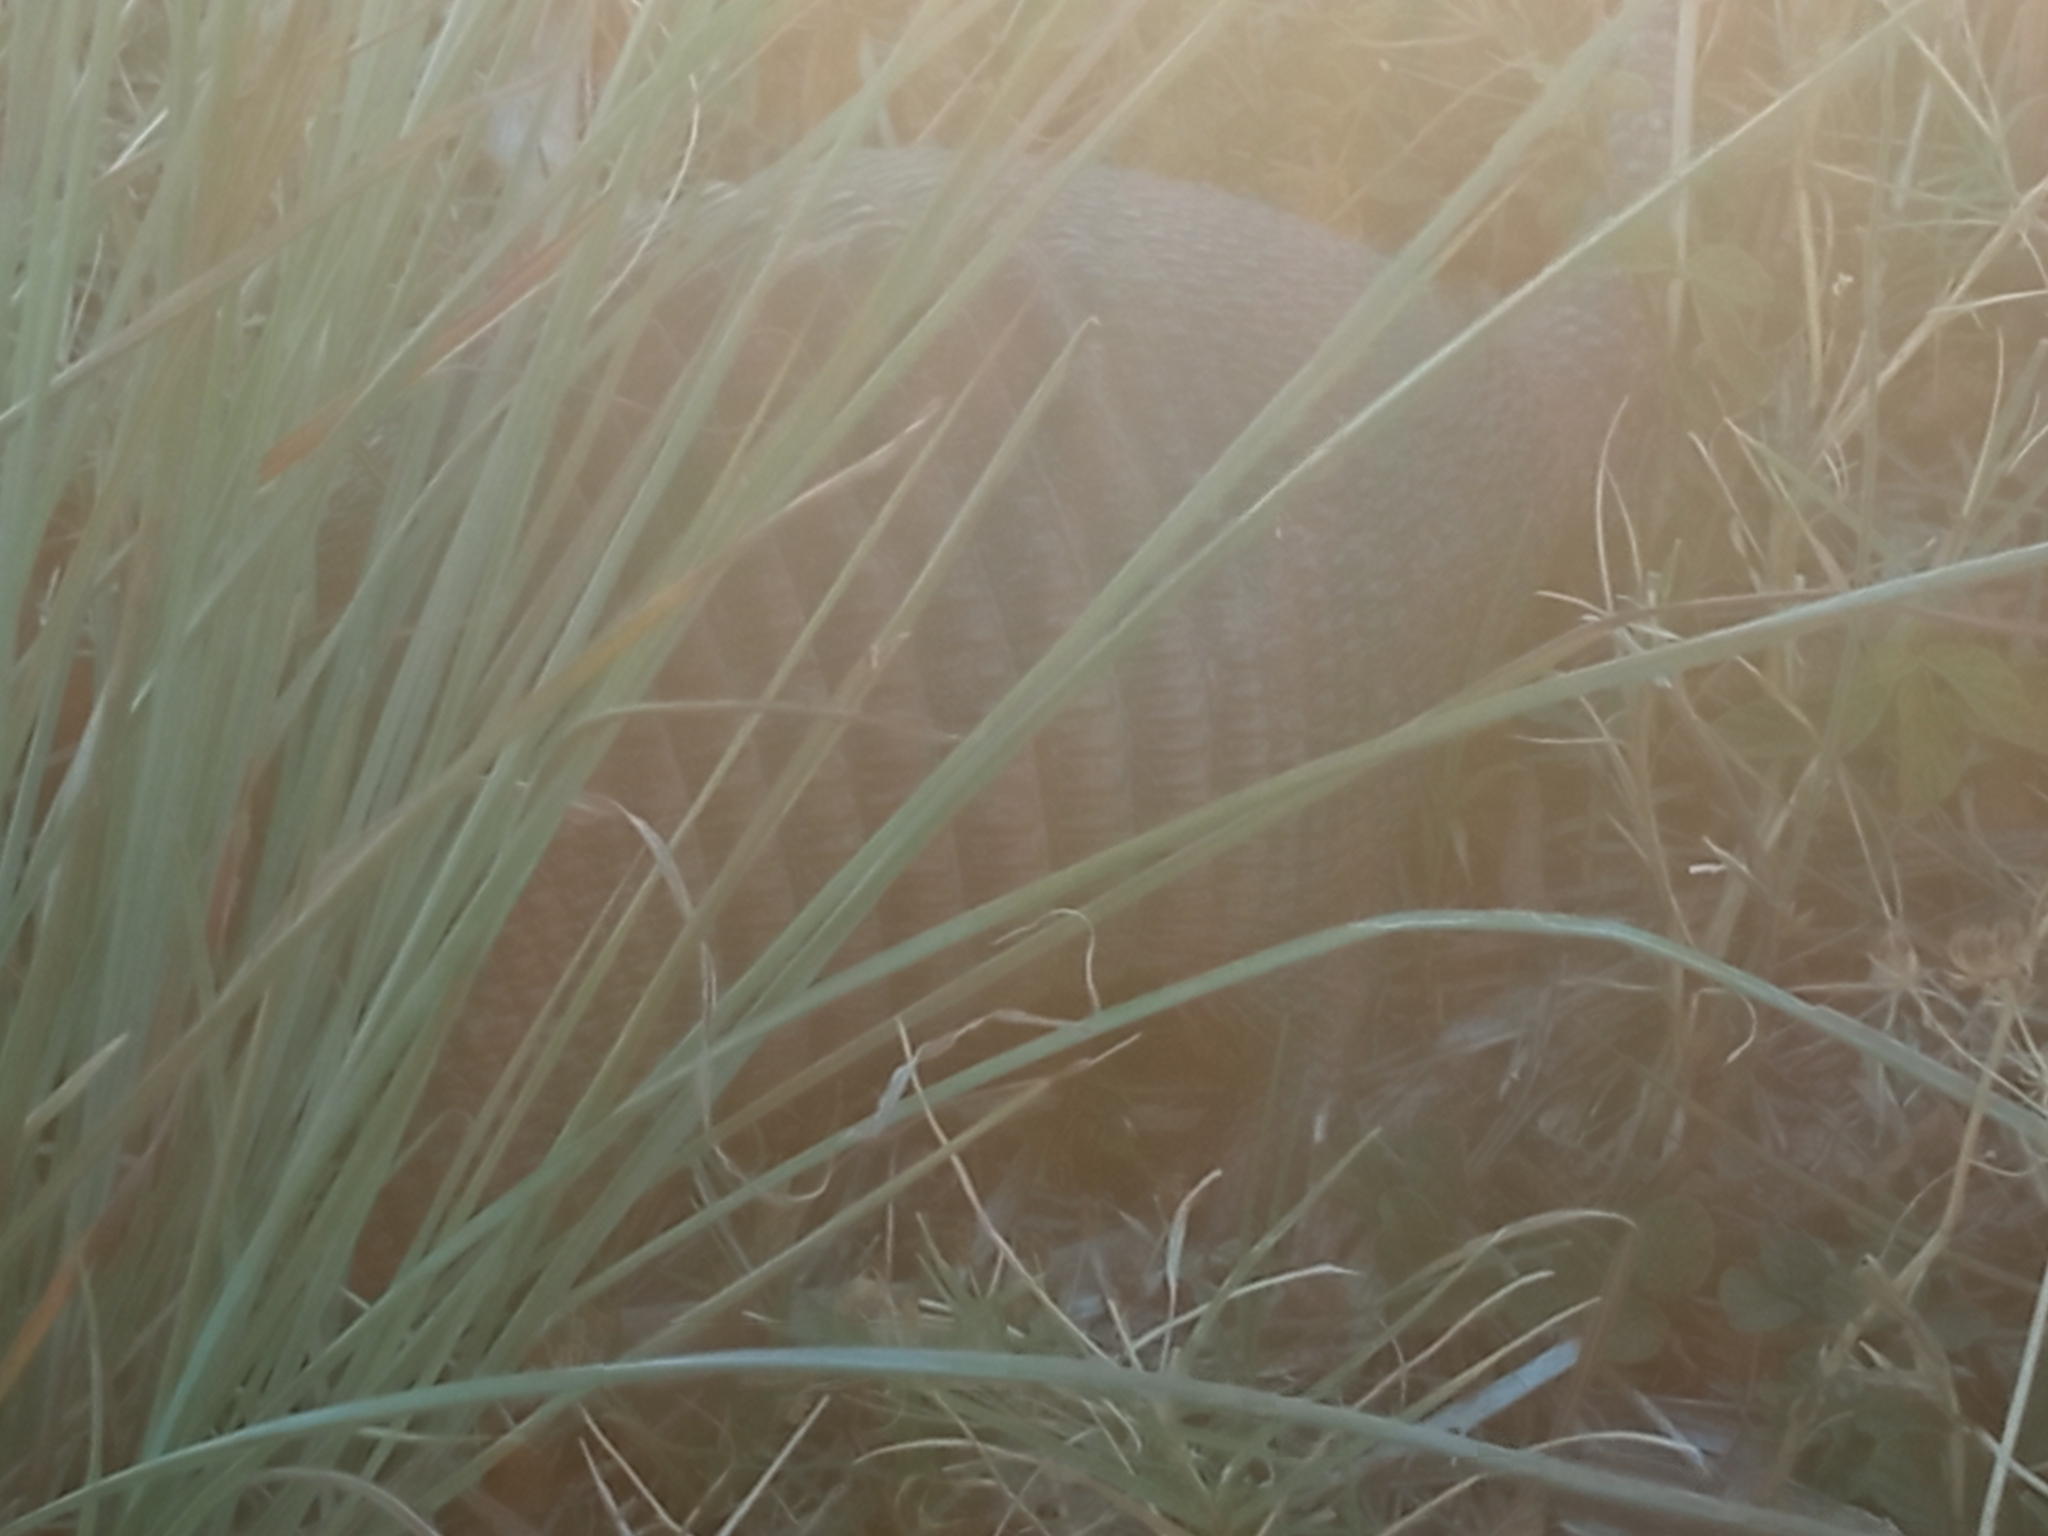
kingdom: Animalia
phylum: Chordata
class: Mammalia
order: Cingulata
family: Dasypodidae
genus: Dasypus
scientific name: Dasypus septemcinctus
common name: Seven-banded armadillo
